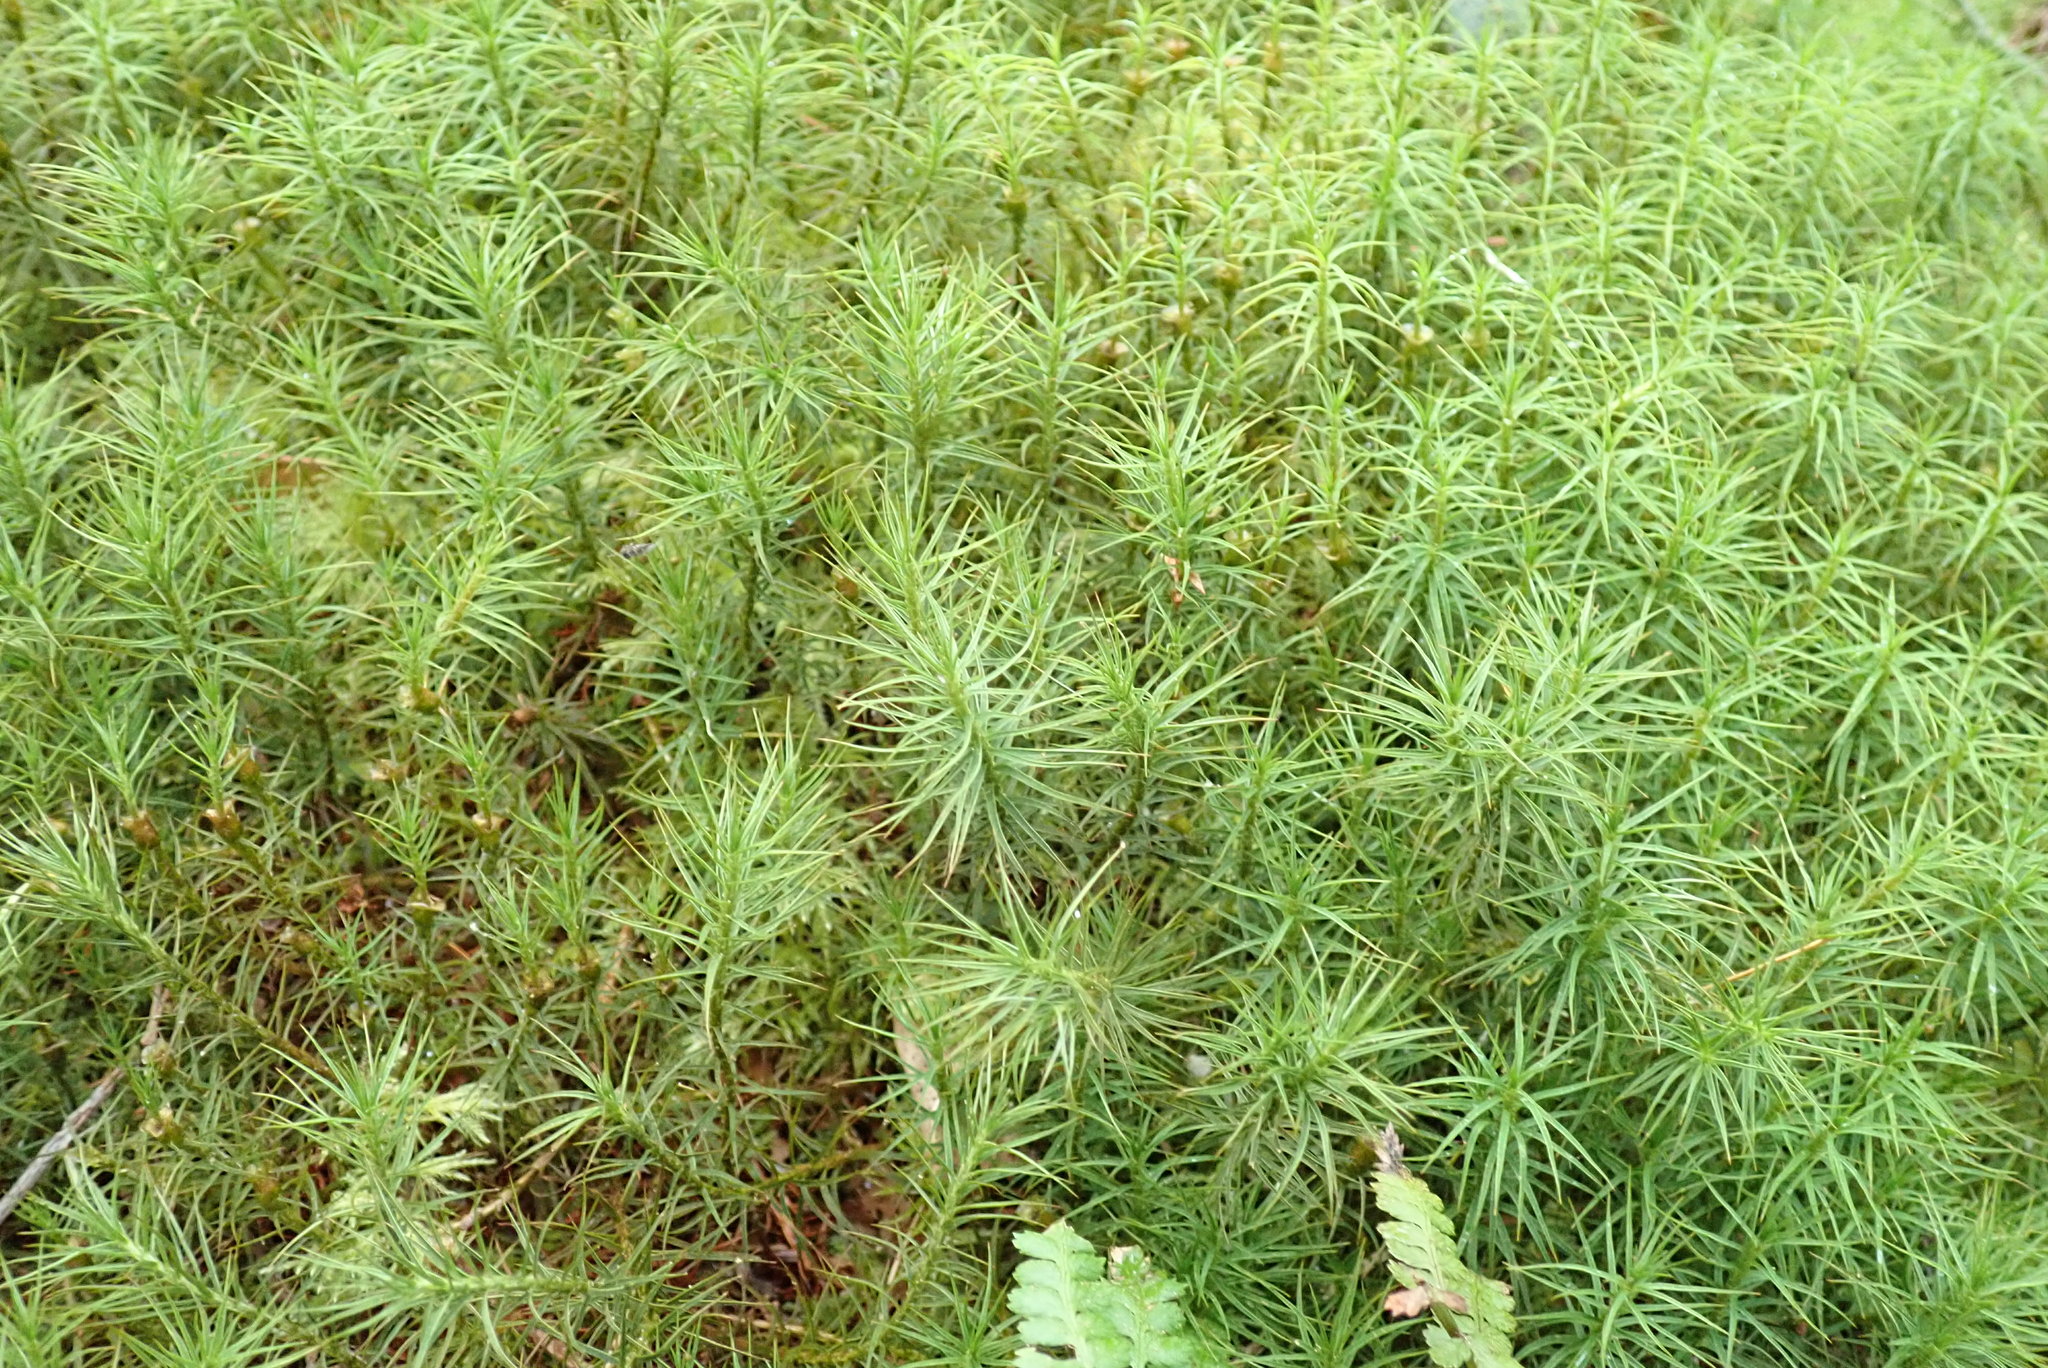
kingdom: Plantae
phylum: Bryophyta
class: Polytrichopsida
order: Polytrichales
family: Polytrichaceae
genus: Polytrichum
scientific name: Polytrichum commune
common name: Common haircap
